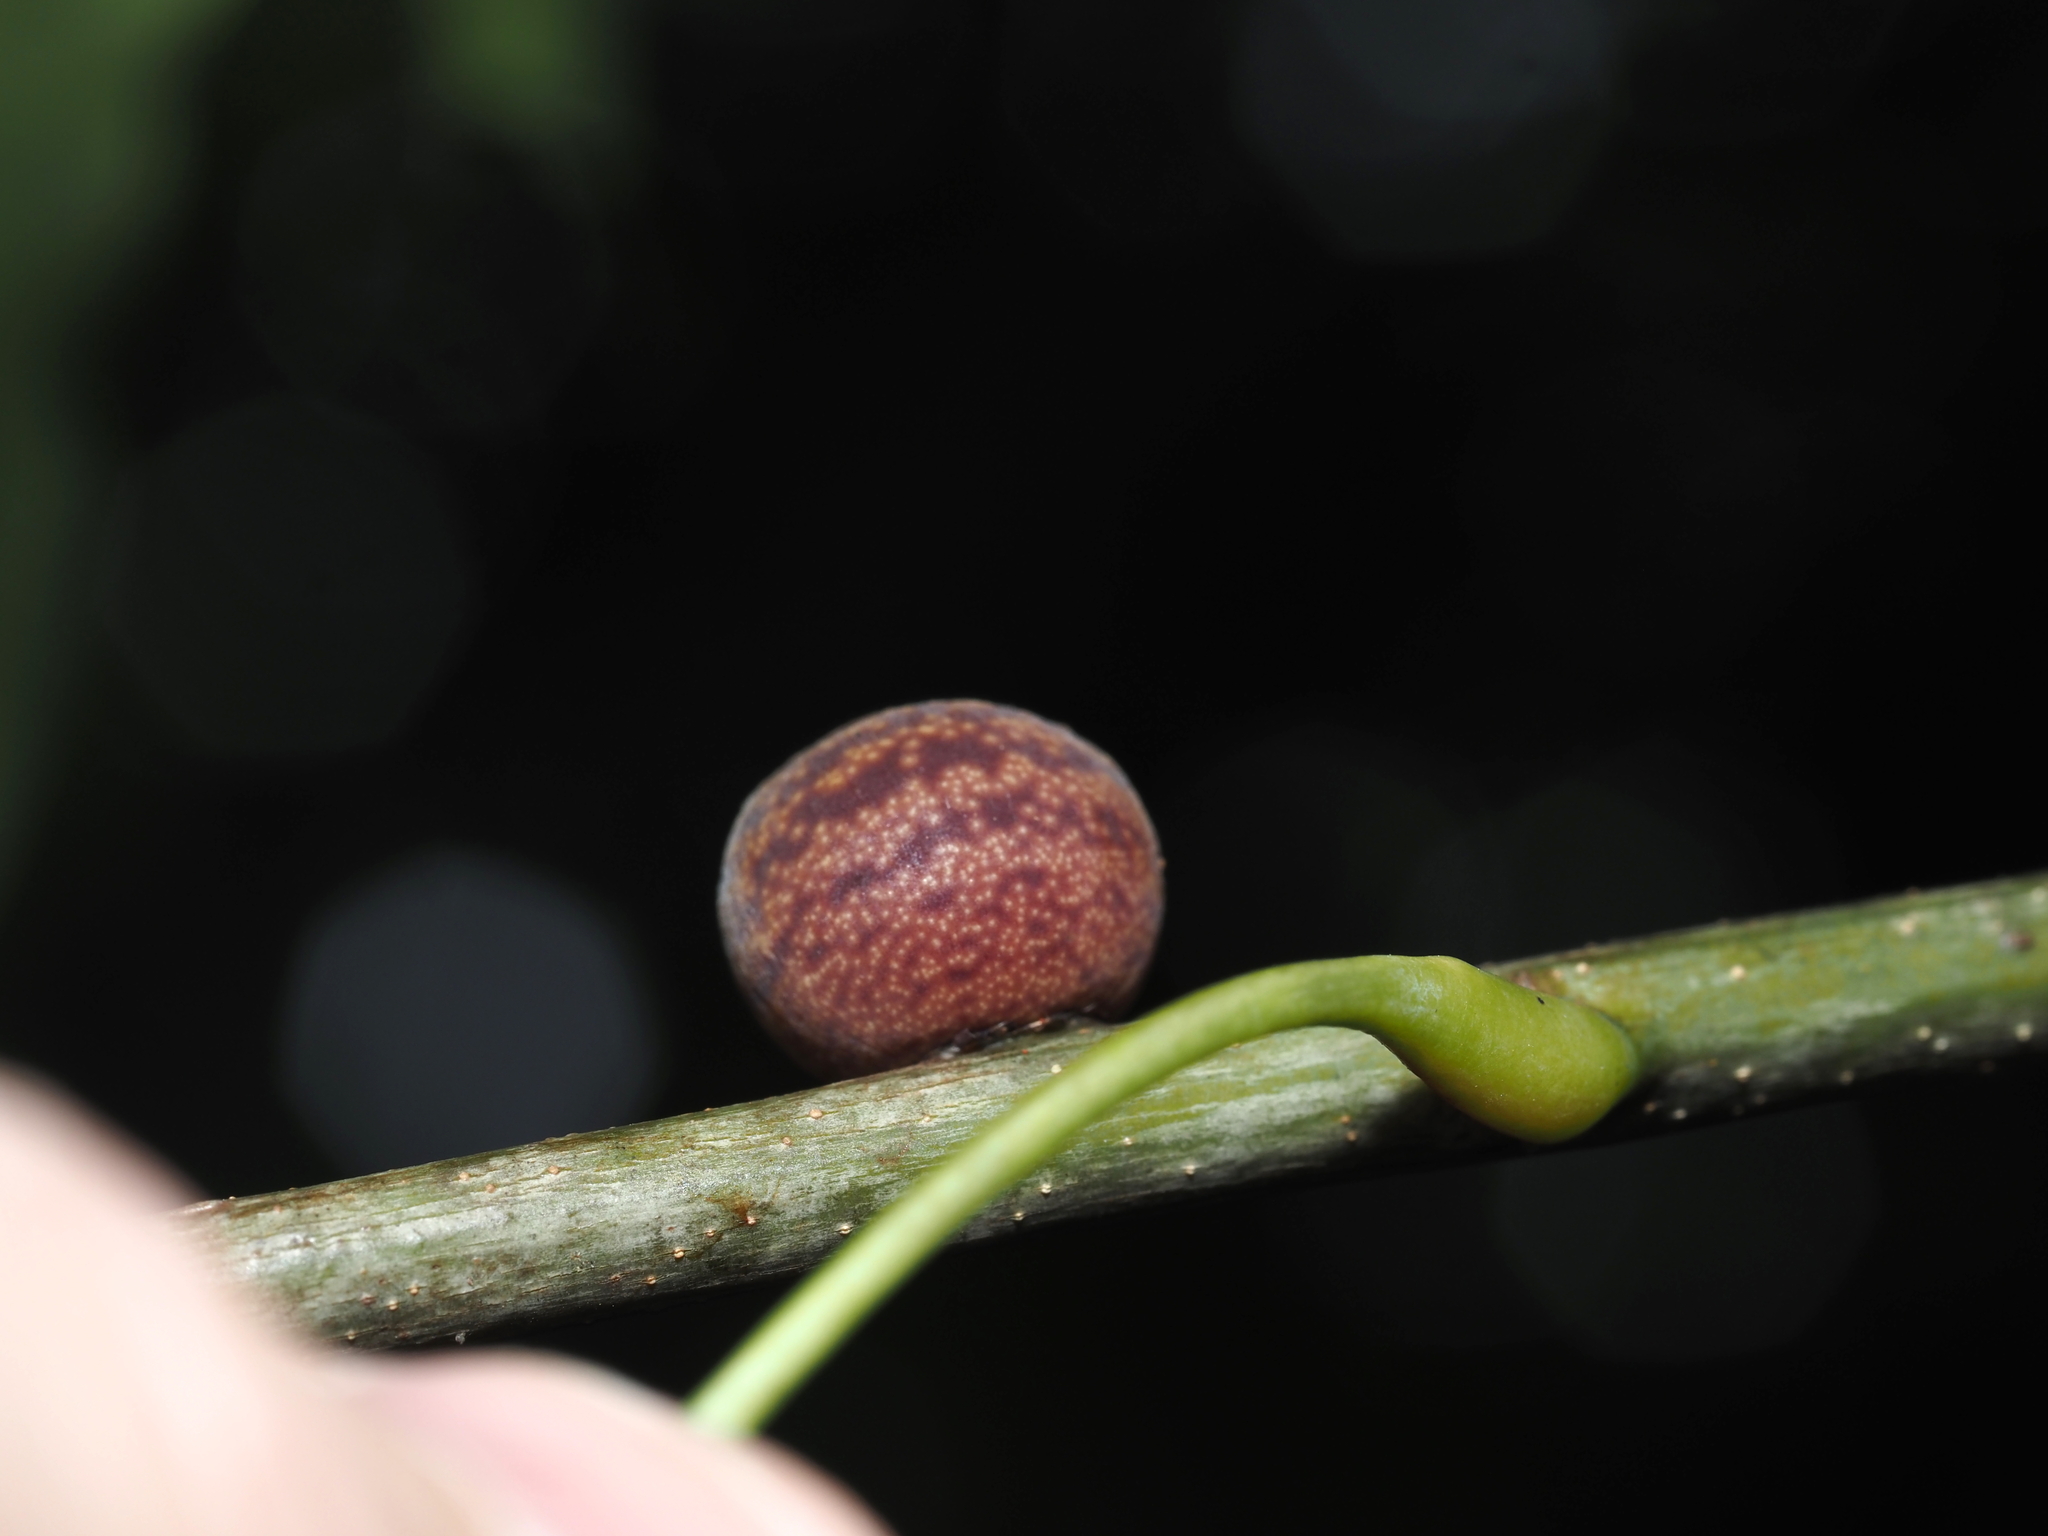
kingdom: Animalia
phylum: Arthropoda
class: Insecta
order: Hymenoptera
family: Cynipidae
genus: Kokkocynips
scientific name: Kokkocynips imbricariae
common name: Banded bullet gall wasp
